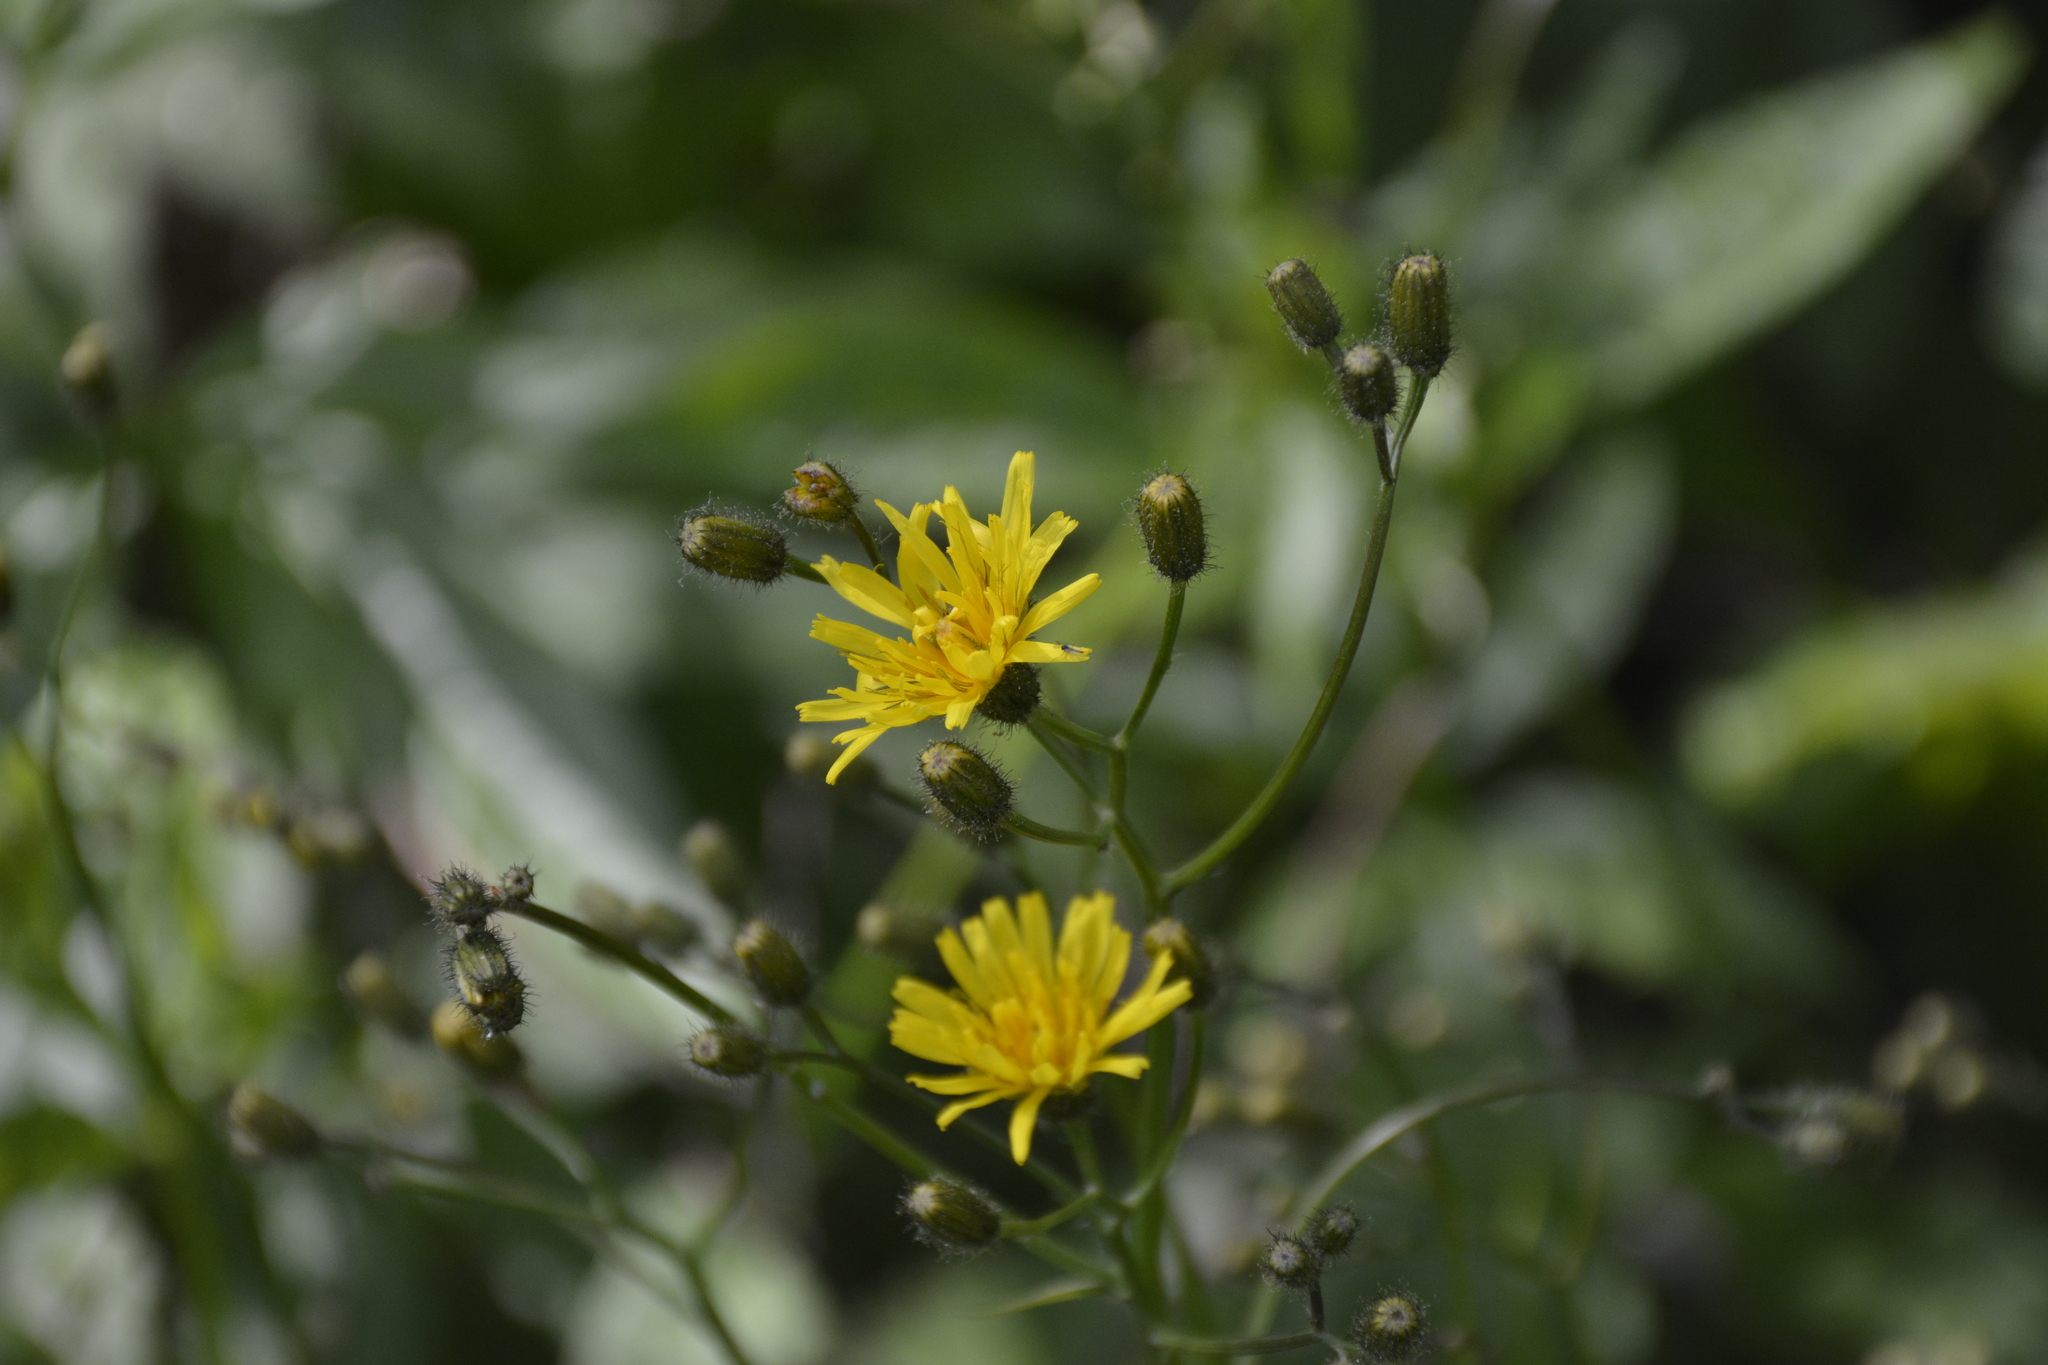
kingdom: Plantae
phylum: Tracheophyta
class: Magnoliopsida
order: Asterales
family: Asteraceae
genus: Crepis
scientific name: Crepis paludosa
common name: Marsh hawk's-beard
